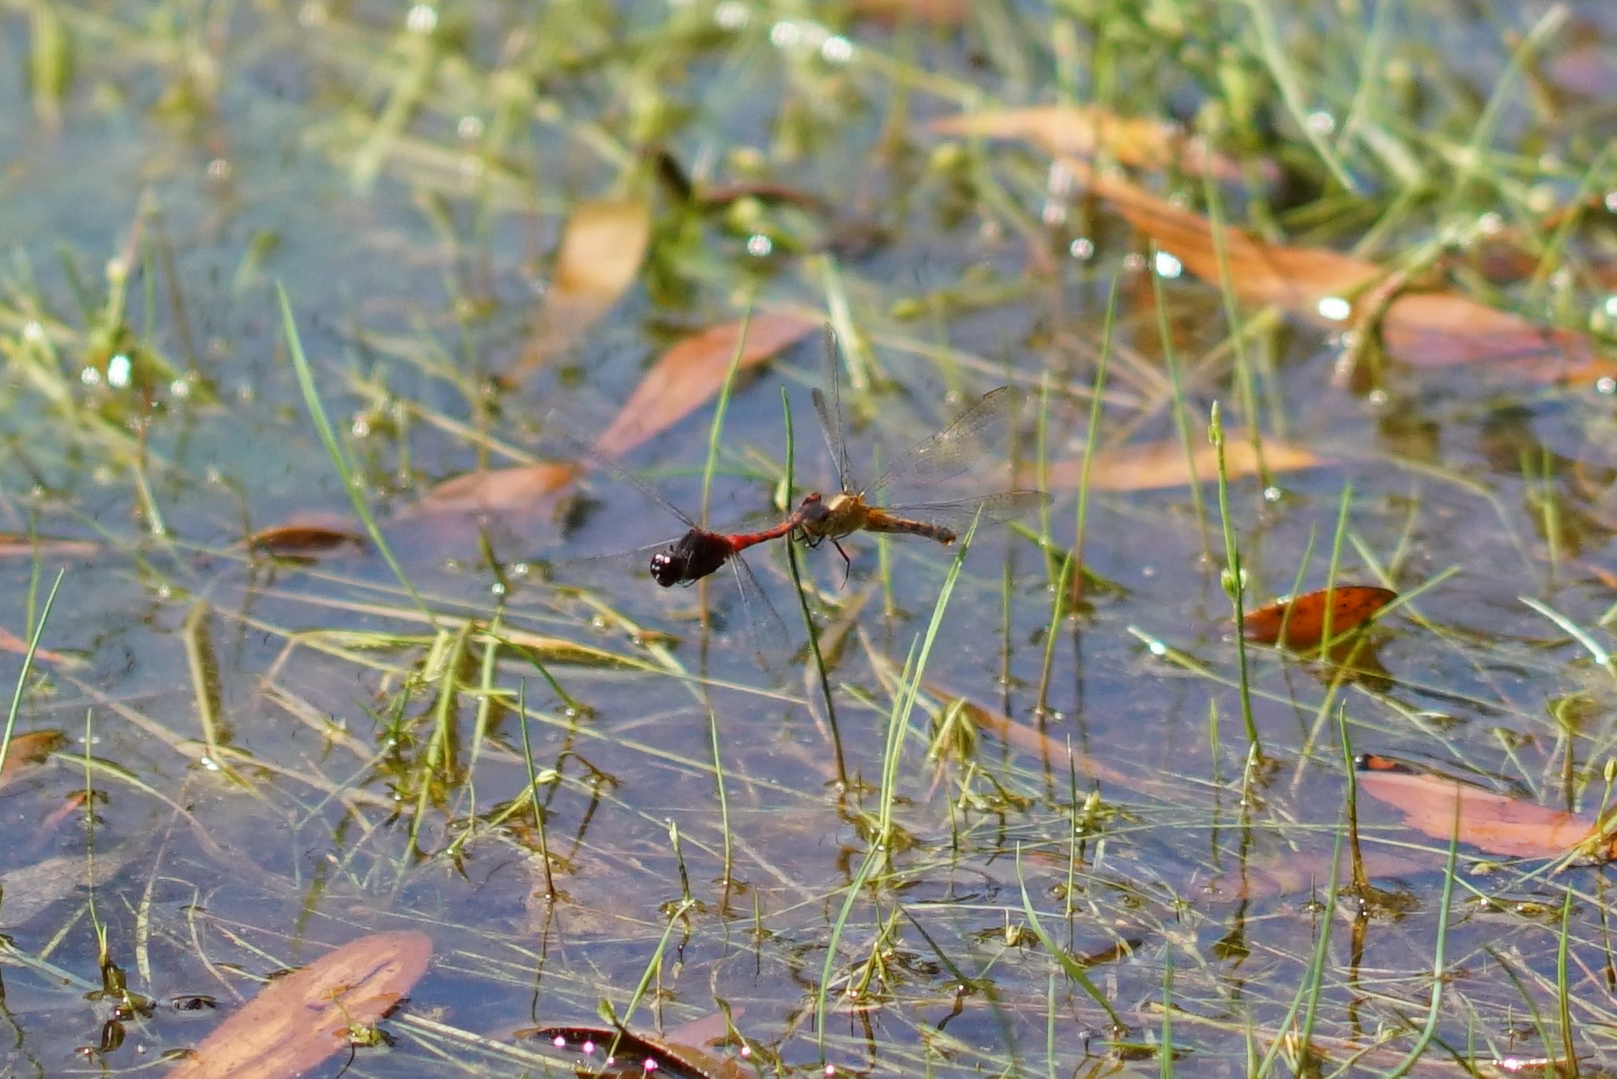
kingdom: Animalia
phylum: Arthropoda
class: Insecta
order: Odonata
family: Libellulidae
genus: Diplacodes
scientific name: Diplacodes melanopsis
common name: Black-faced percher
